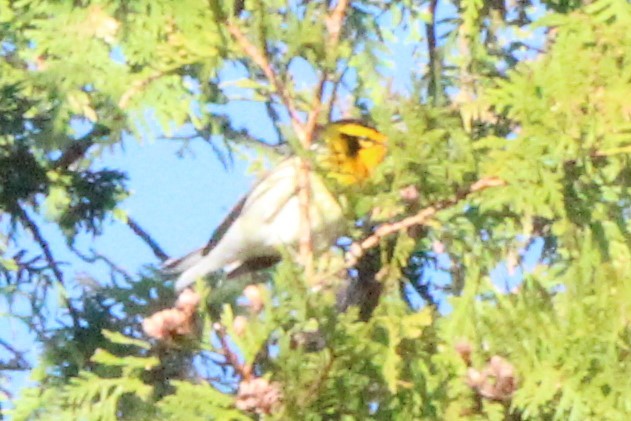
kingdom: Animalia
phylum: Chordata
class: Aves
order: Passeriformes
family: Parulidae
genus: Setophaga
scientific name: Setophaga fusca
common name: Blackburnian warbler
